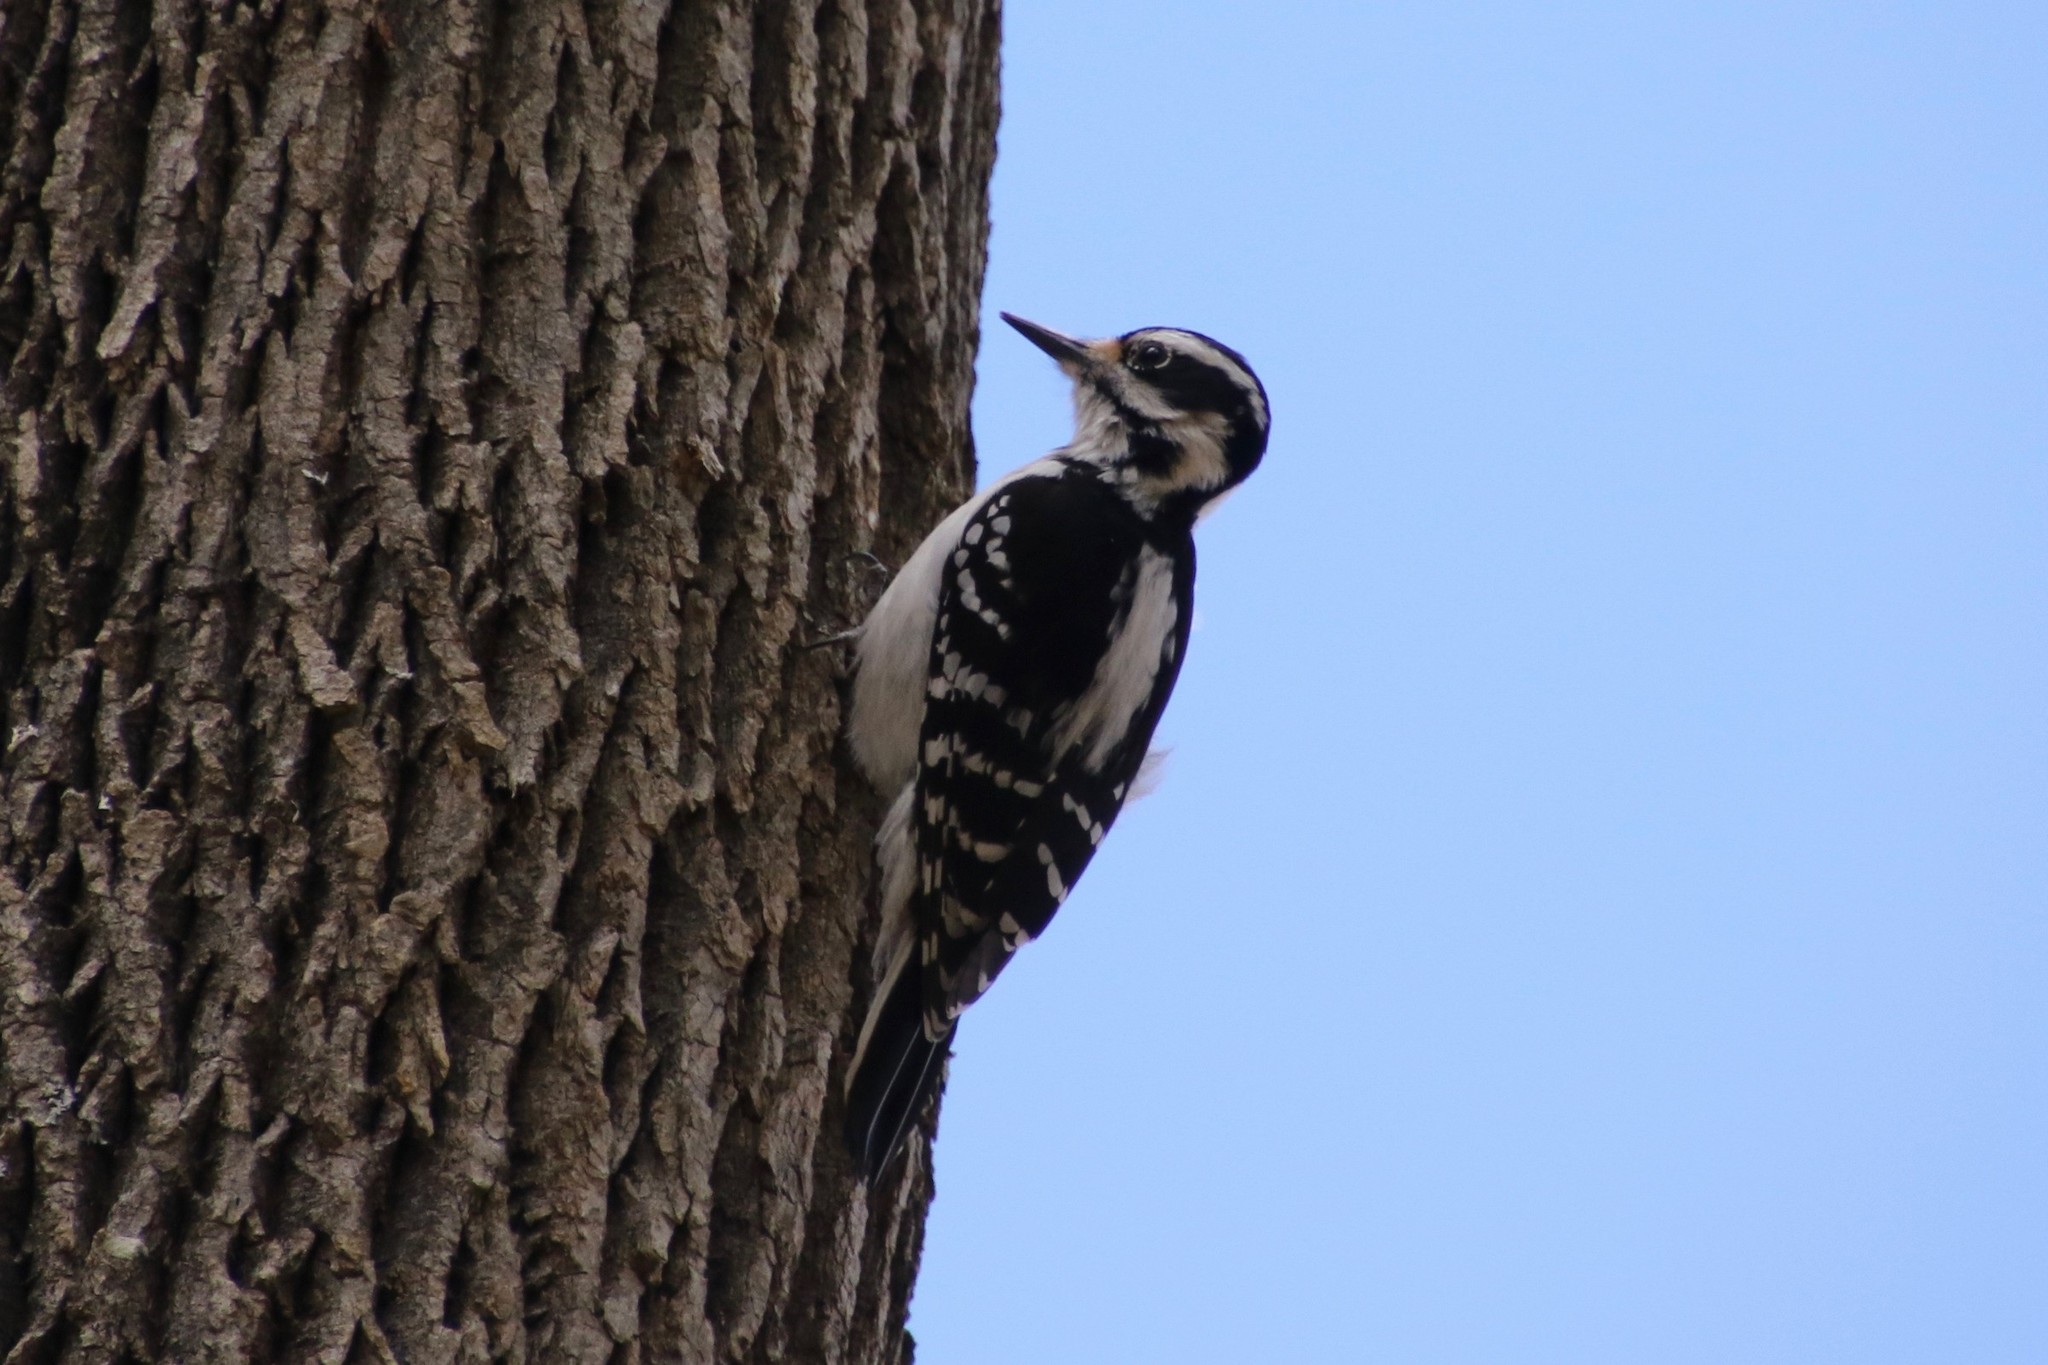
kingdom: Animalia
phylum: Chordata
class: Aves
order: Piciformes
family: Picidae
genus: Leuconotopicus
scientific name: Leuconotopicus villosus
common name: Hairy woodpecker
